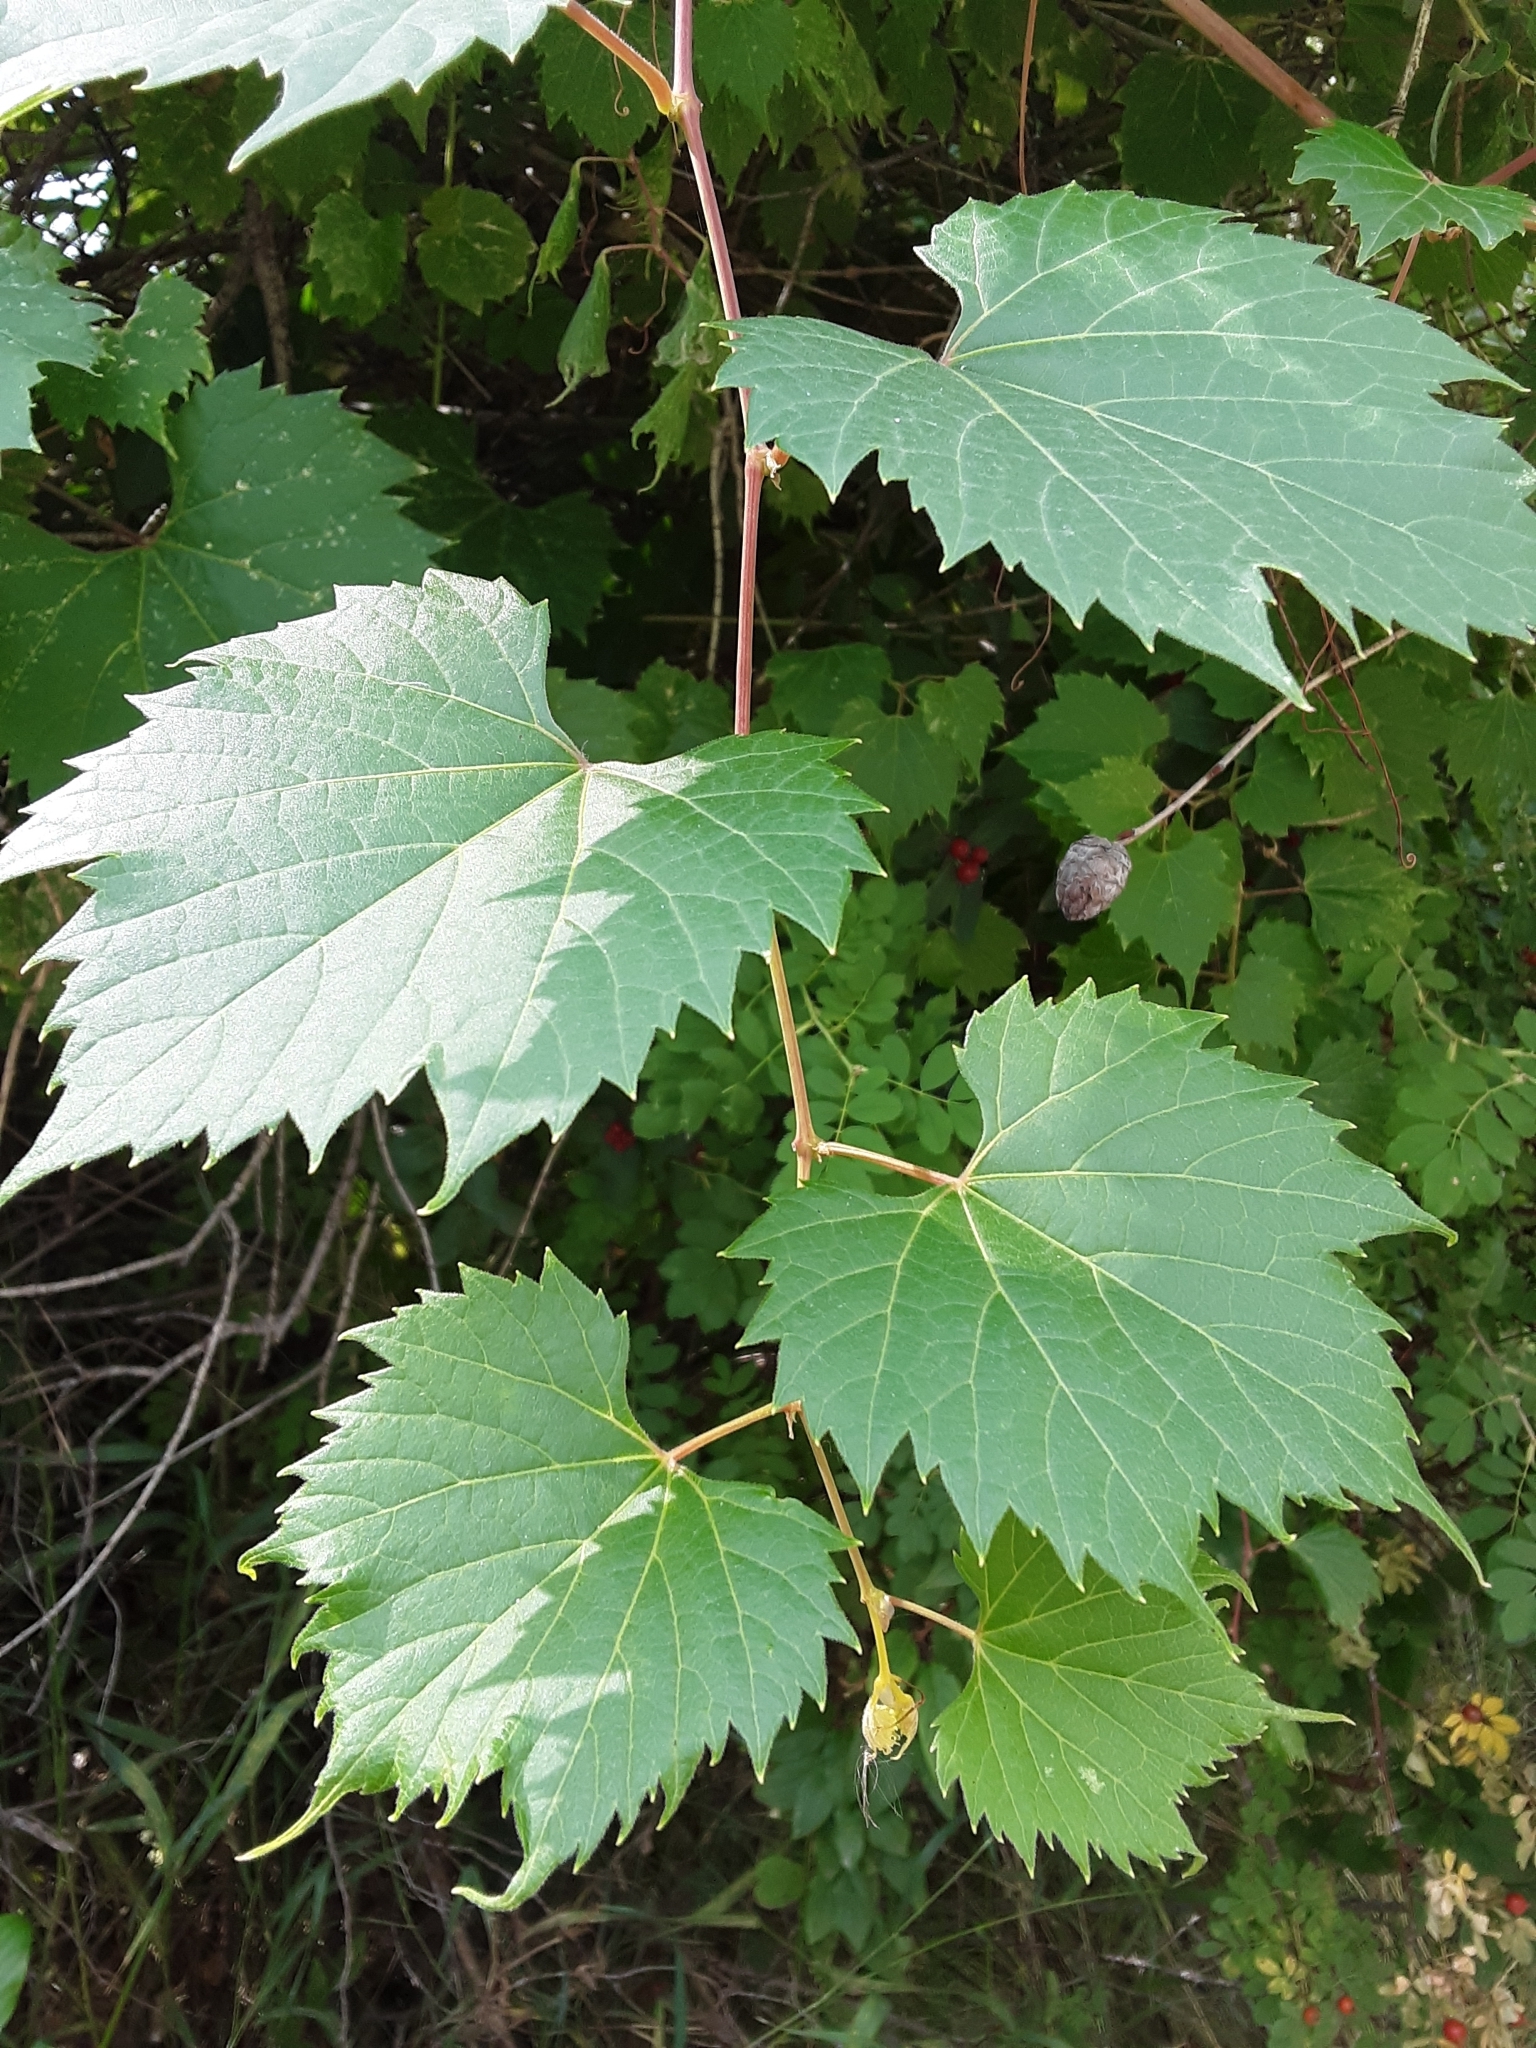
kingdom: Plantae
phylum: Tracheophyta
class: Magnoliopsida
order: Vitales
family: Vitaceae
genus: Vitis
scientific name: Vitis riparia
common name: Frost grape
